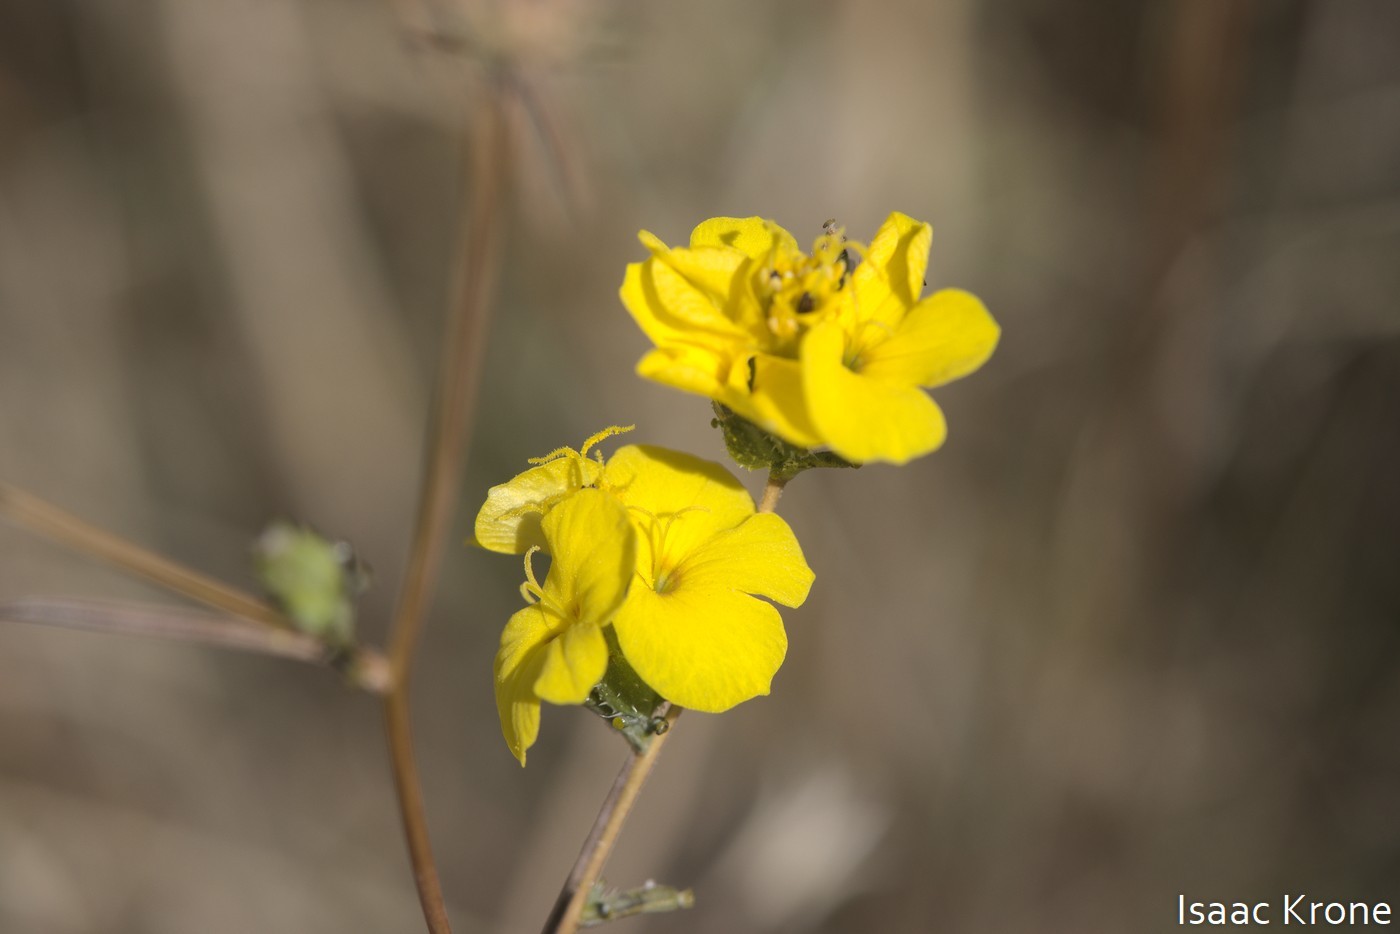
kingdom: Plantae
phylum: Tracheophyta
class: Magnoliopsida
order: Asterales
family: Asteraceae
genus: Calycadenia
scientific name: Calycadenia truncata
